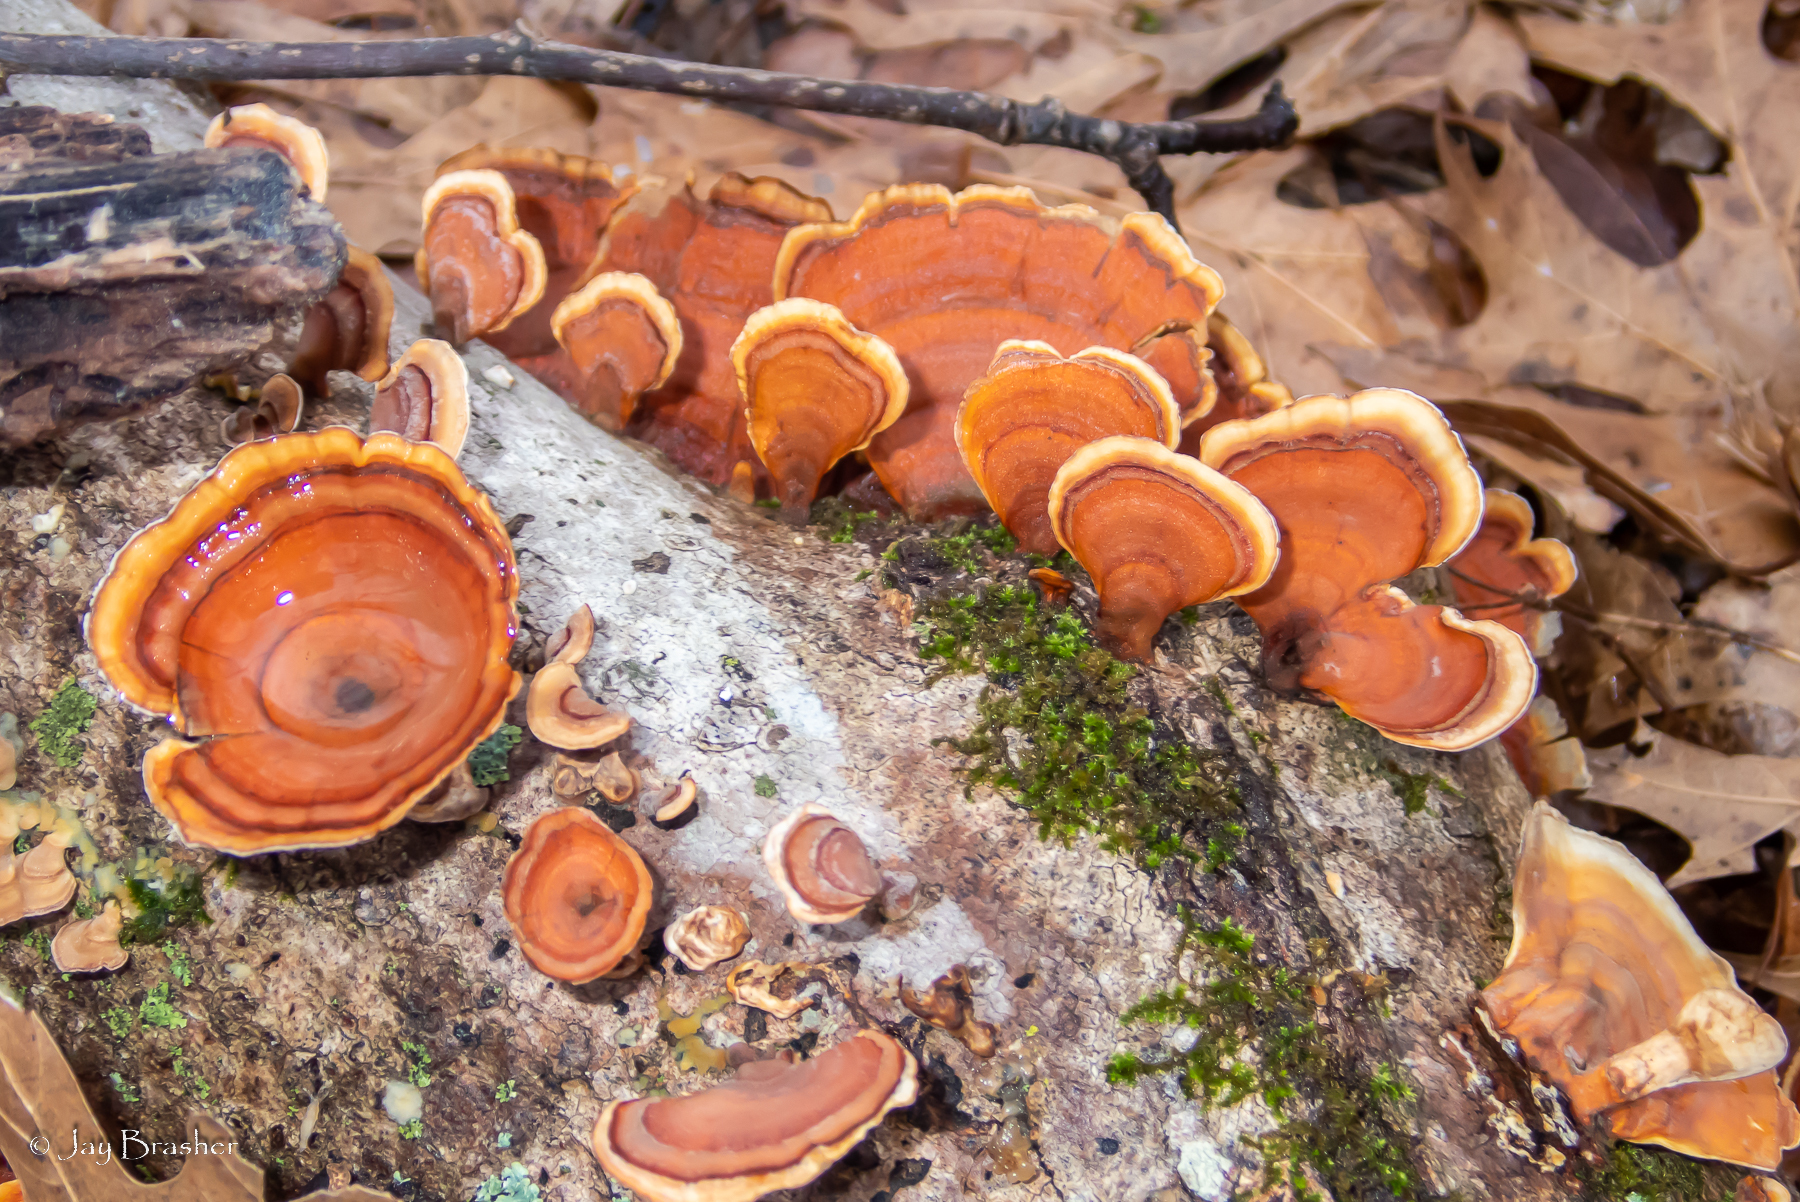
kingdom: Fungi
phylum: Basidiomycota
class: Agaricomycetes
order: Russulales
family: Stereaceae
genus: Stereum
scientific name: Stereum lobatum
